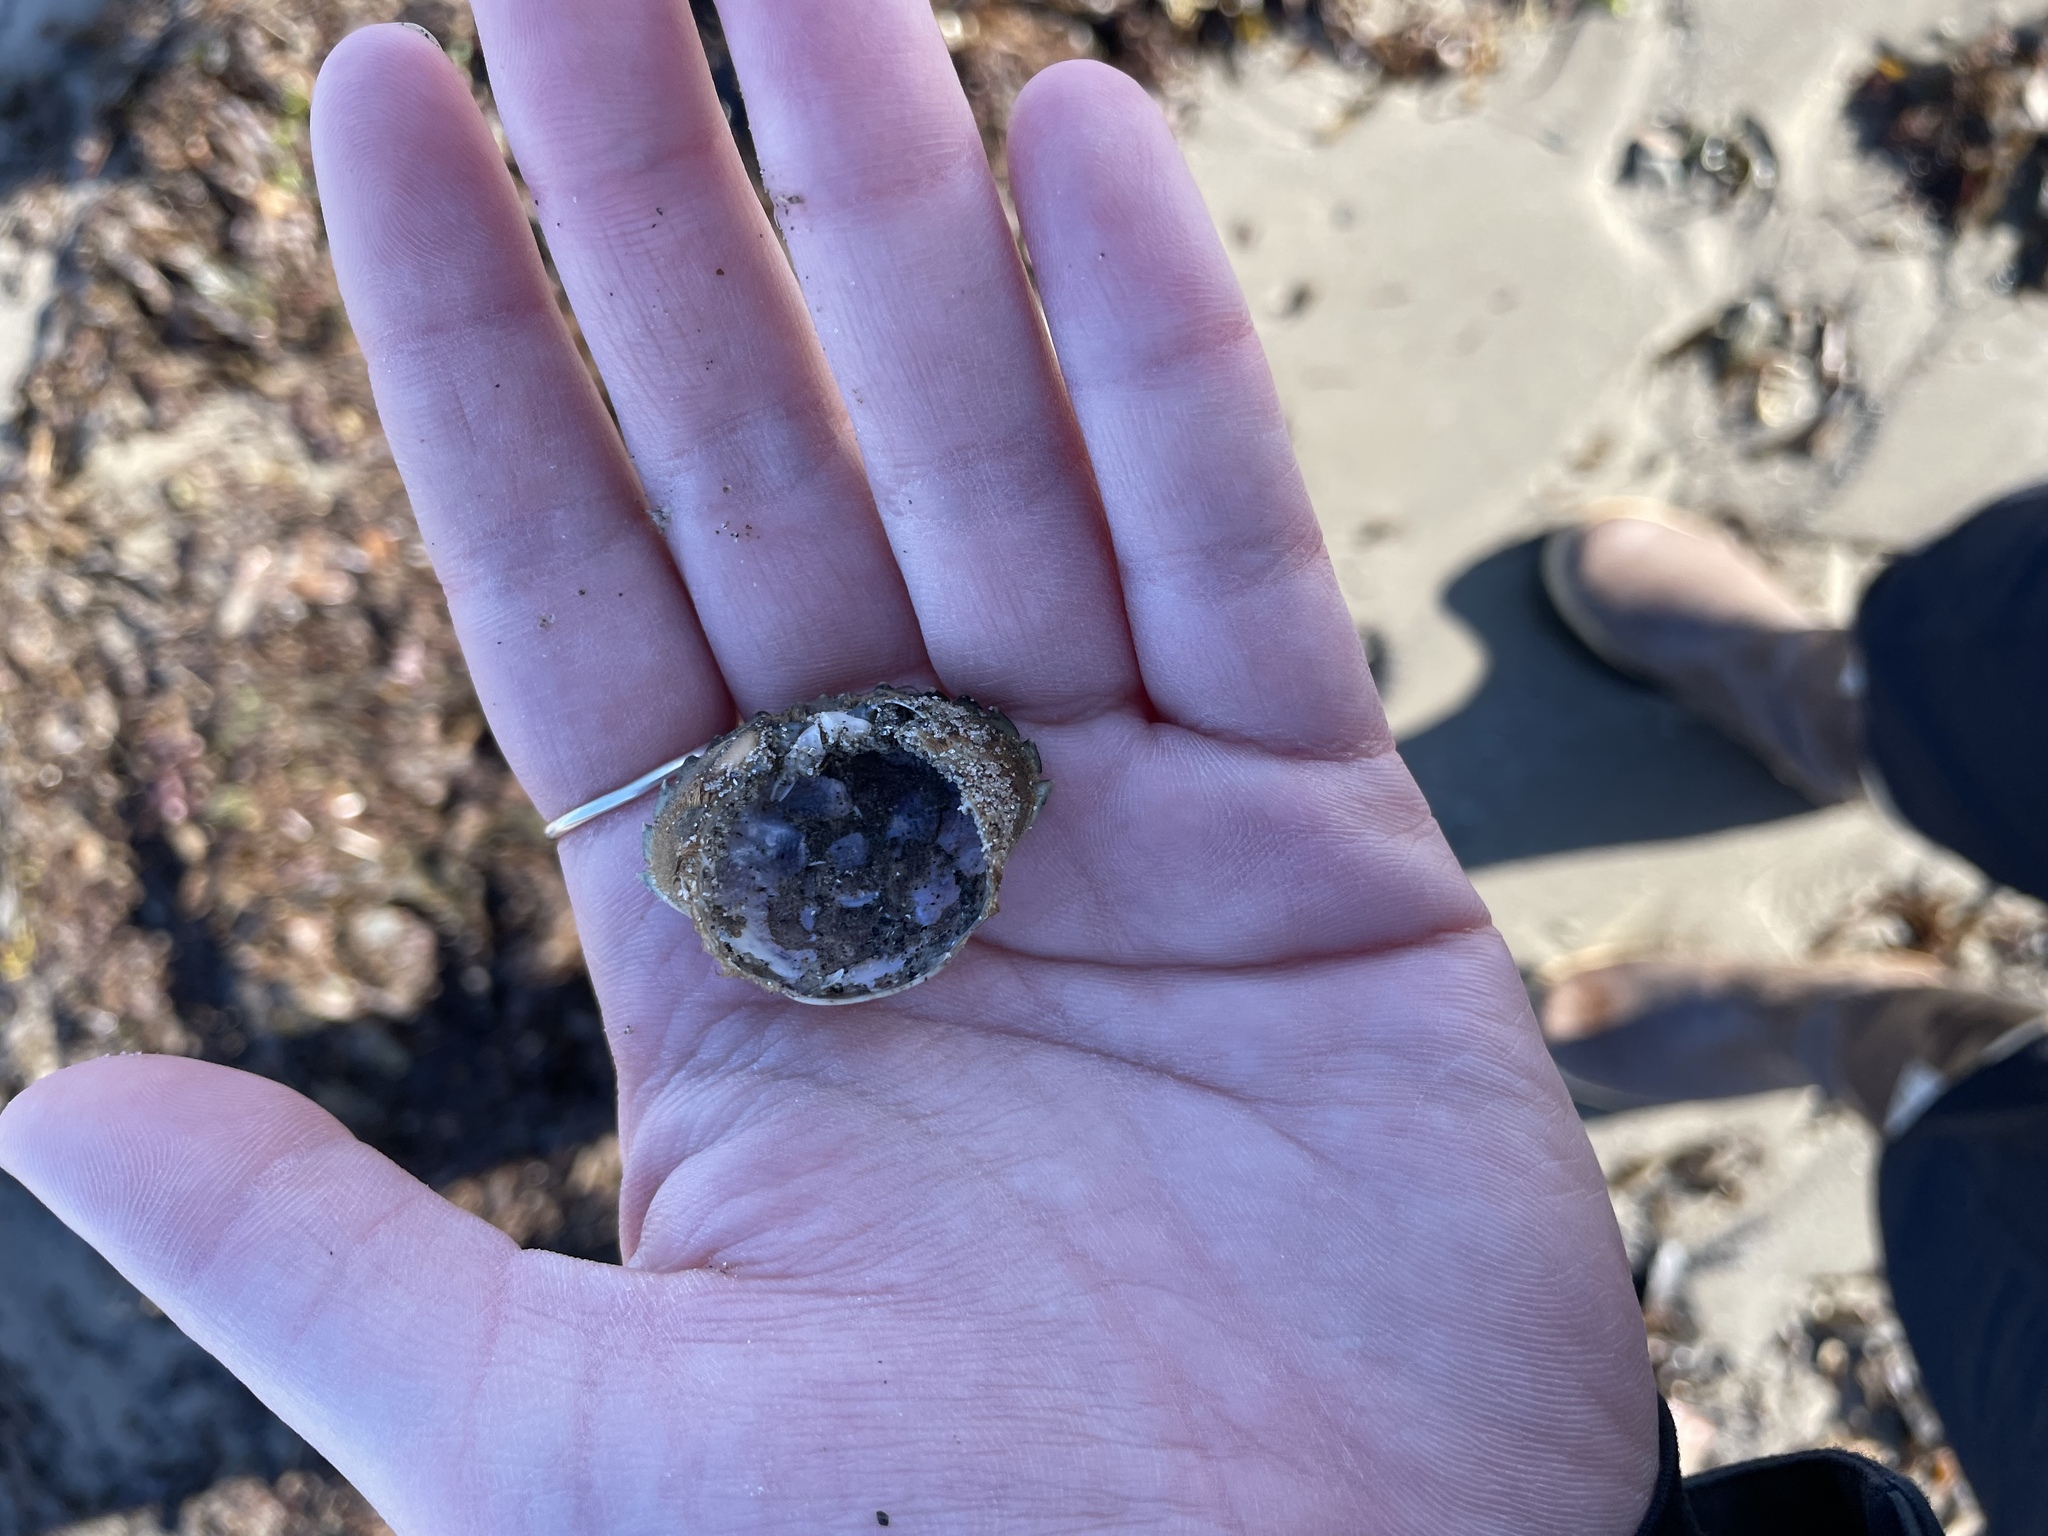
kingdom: Animalia
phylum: Arthropoda
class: Malacostraca
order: Decapoda
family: Carcinidae
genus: Carcinus
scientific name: Carcinus maenas
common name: European green crab
